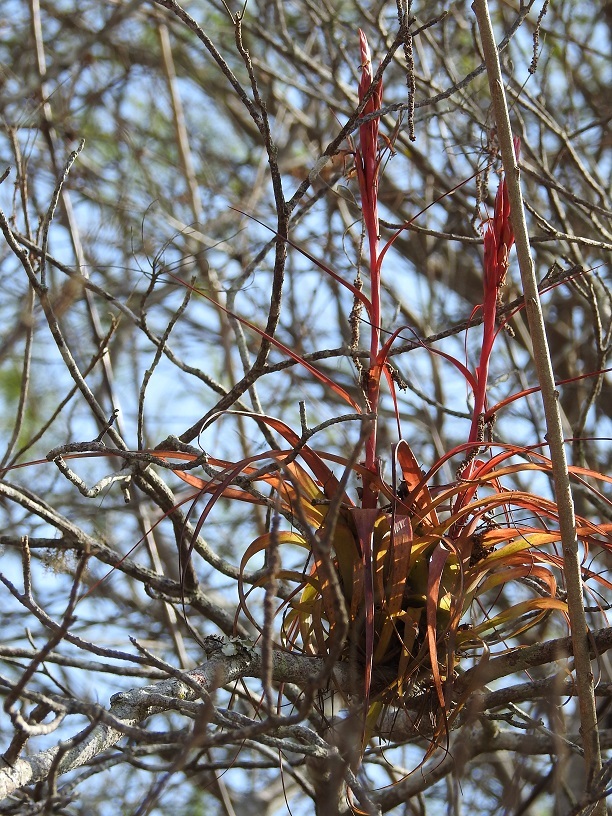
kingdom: Plantae
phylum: Tracheophyta
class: Liliopsida
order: Poales
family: Bromeliaceae
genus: Tillandsia
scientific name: Tillandsia polystachia
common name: Airplant
